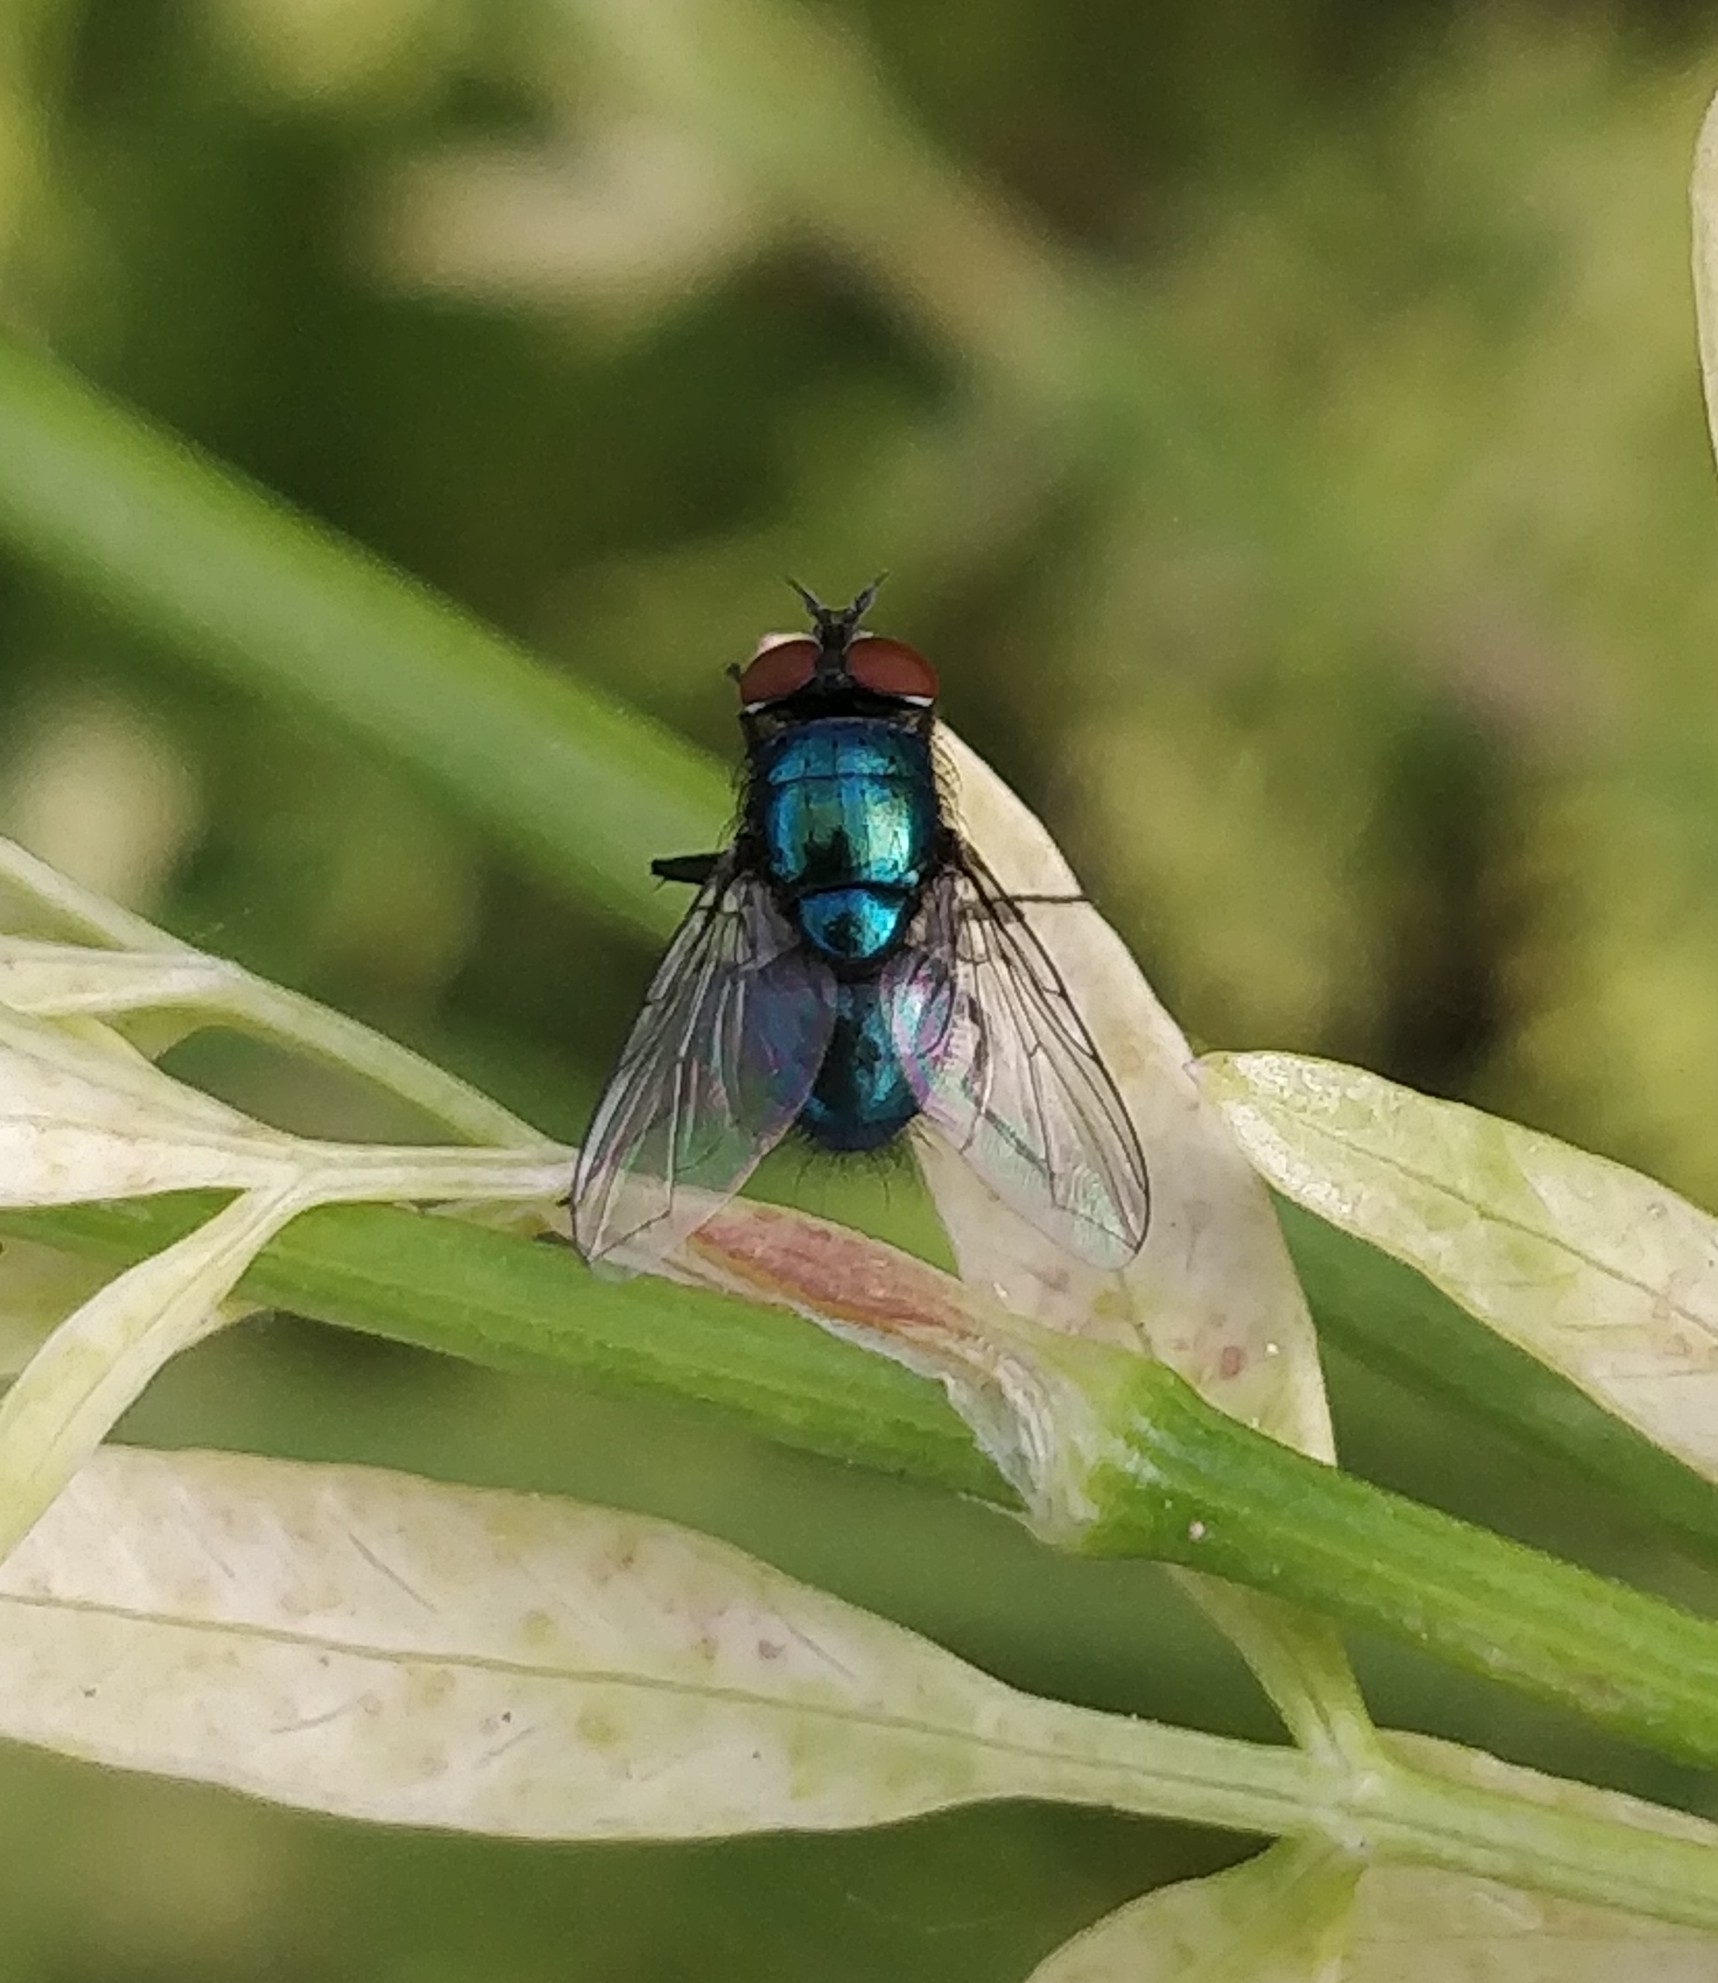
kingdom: Animalia
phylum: Arthropoda
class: Insecta
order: Diptera
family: Calliphoridae
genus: Lucilia
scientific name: Lucilia sericata
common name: Blow fly
